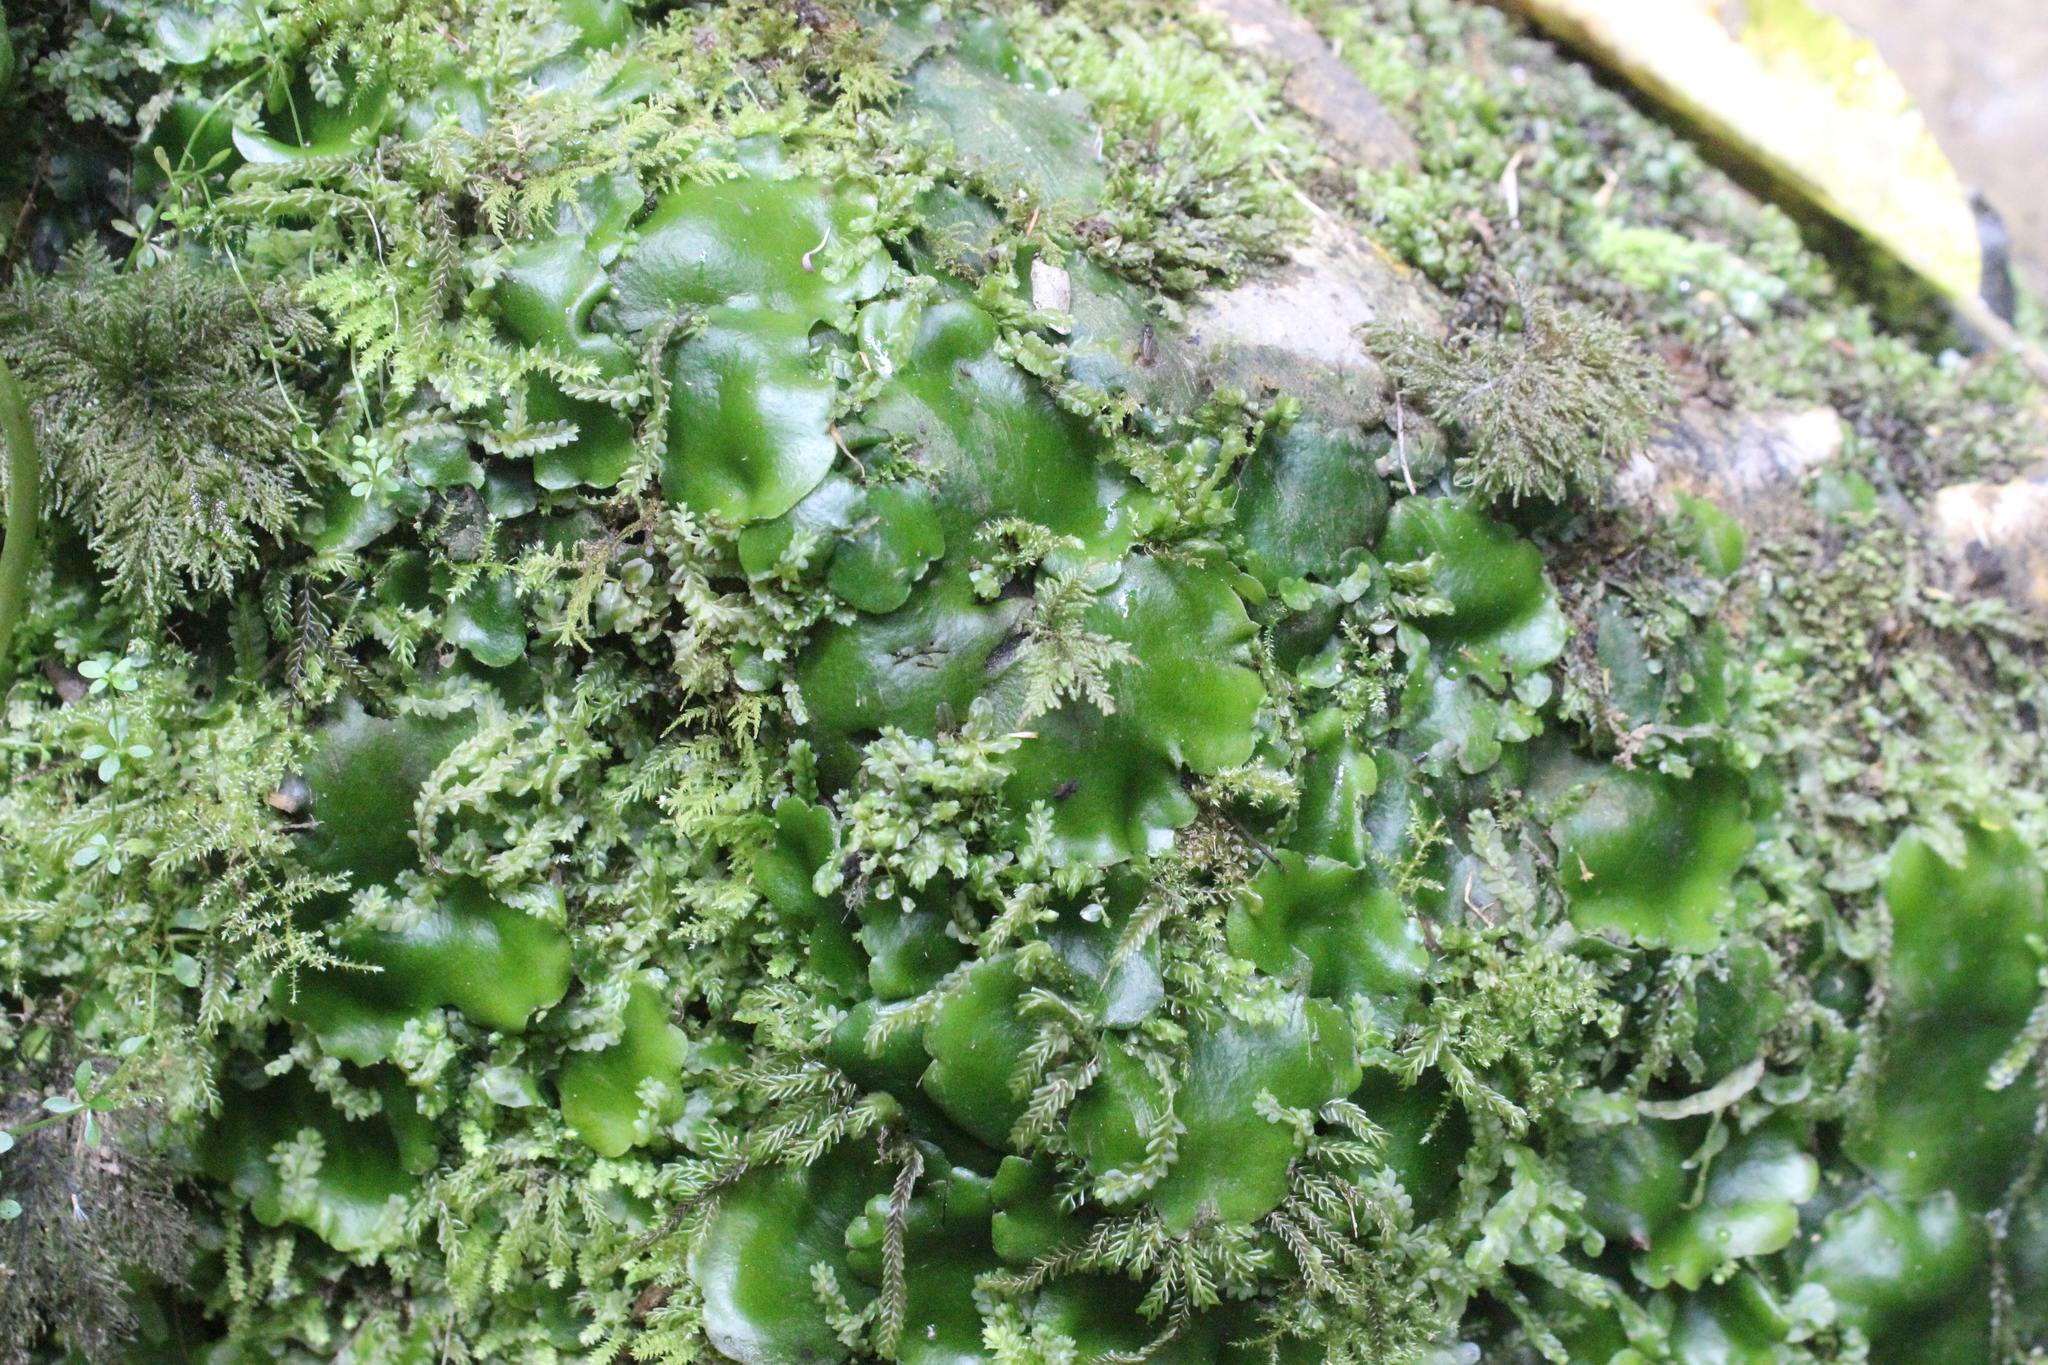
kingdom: Plantae
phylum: Marchantiophyta
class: Marchantiopsida
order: Marchantiales
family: Monocleaceae
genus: Monoclea
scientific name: Monoclea forsteri
